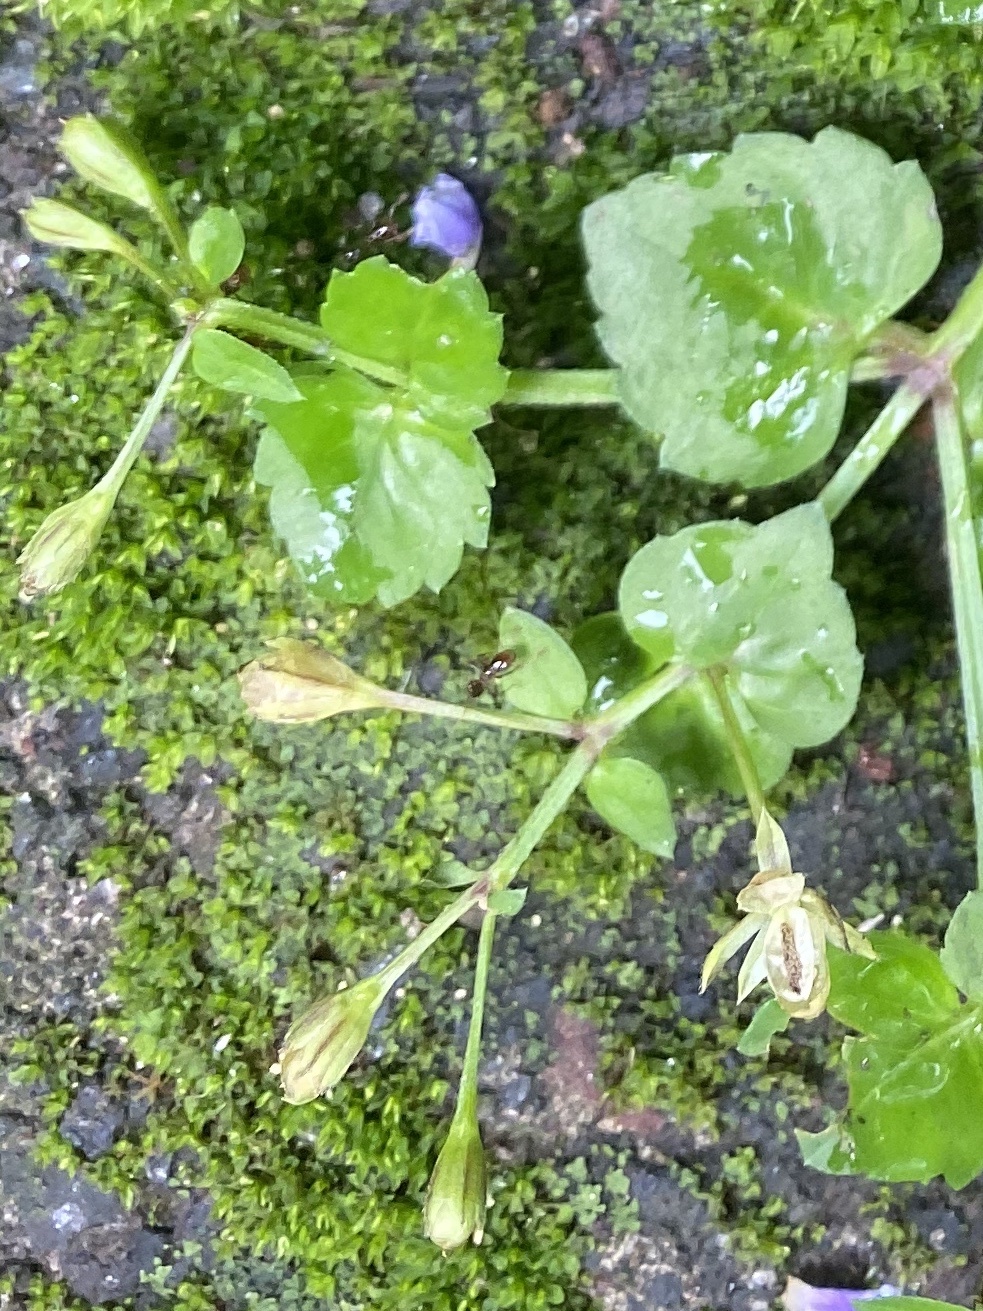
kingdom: Plantae
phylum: Tracheophyta
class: Magnoliopsida
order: Lamiales
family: Linderniaceae
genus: Torenia
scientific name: Torenia crustacea
